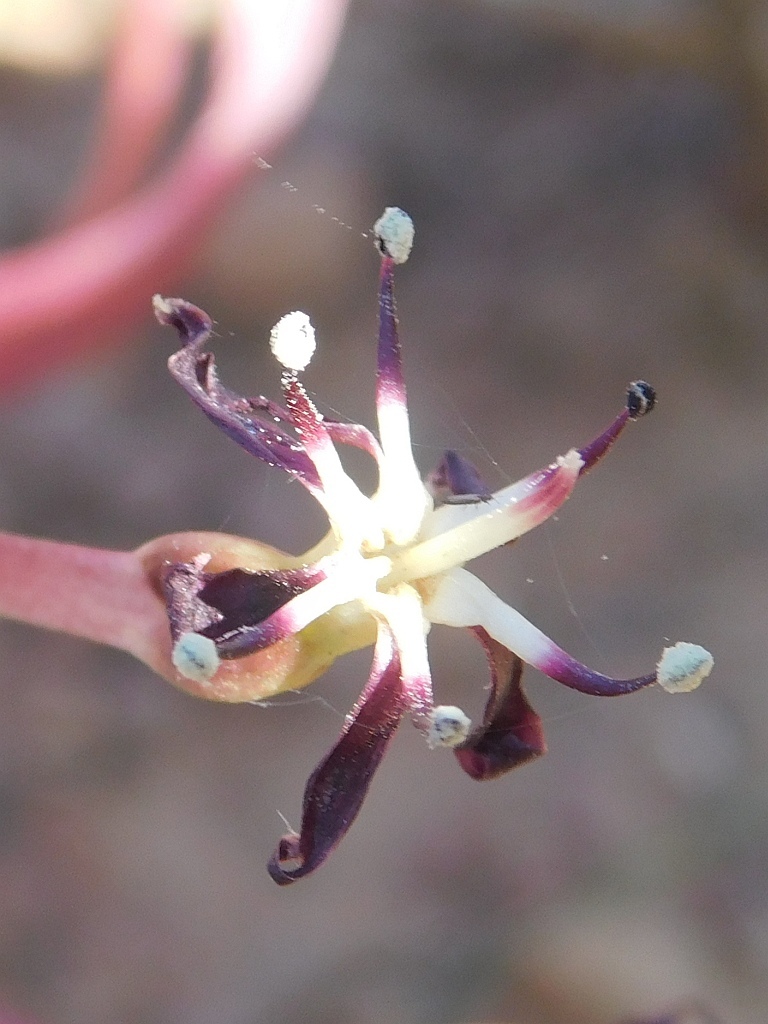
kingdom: Plantae
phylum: Tracheophyta
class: Liliopsida
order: Asparagales
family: Amaryllidaceae
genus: Crossyne
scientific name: Crossyne guttata
